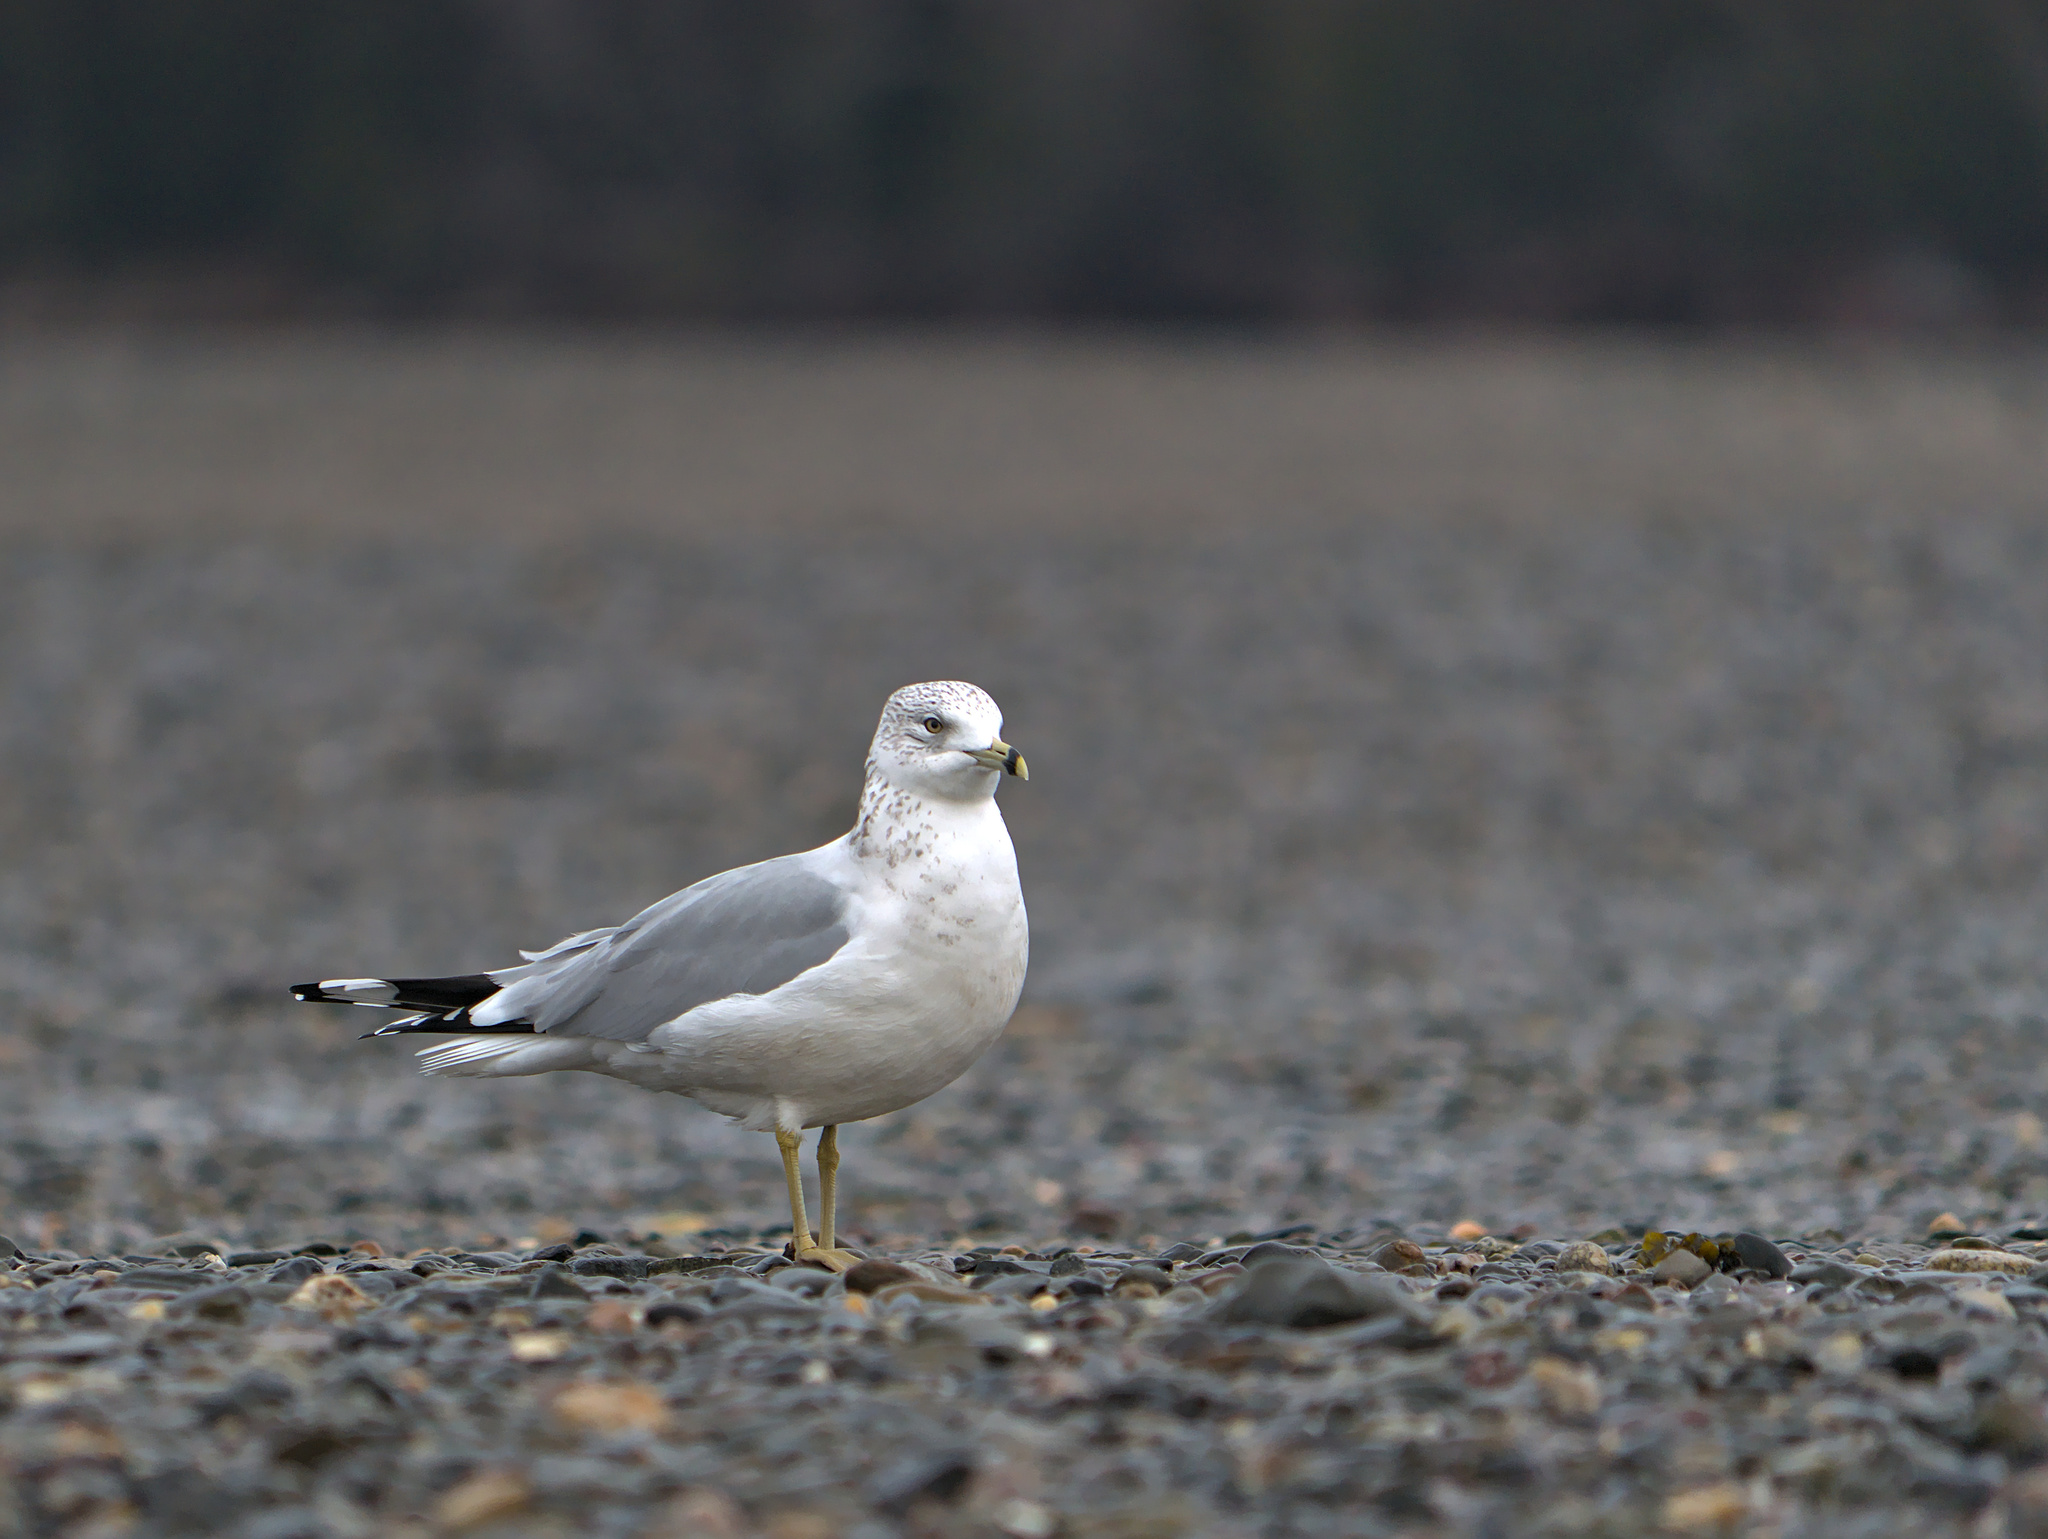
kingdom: Animalia
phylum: Chordata
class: Aves
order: Charadriiformes
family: Laridae
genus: Larus
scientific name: Larus delawarensis
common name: Ring-billed gull
